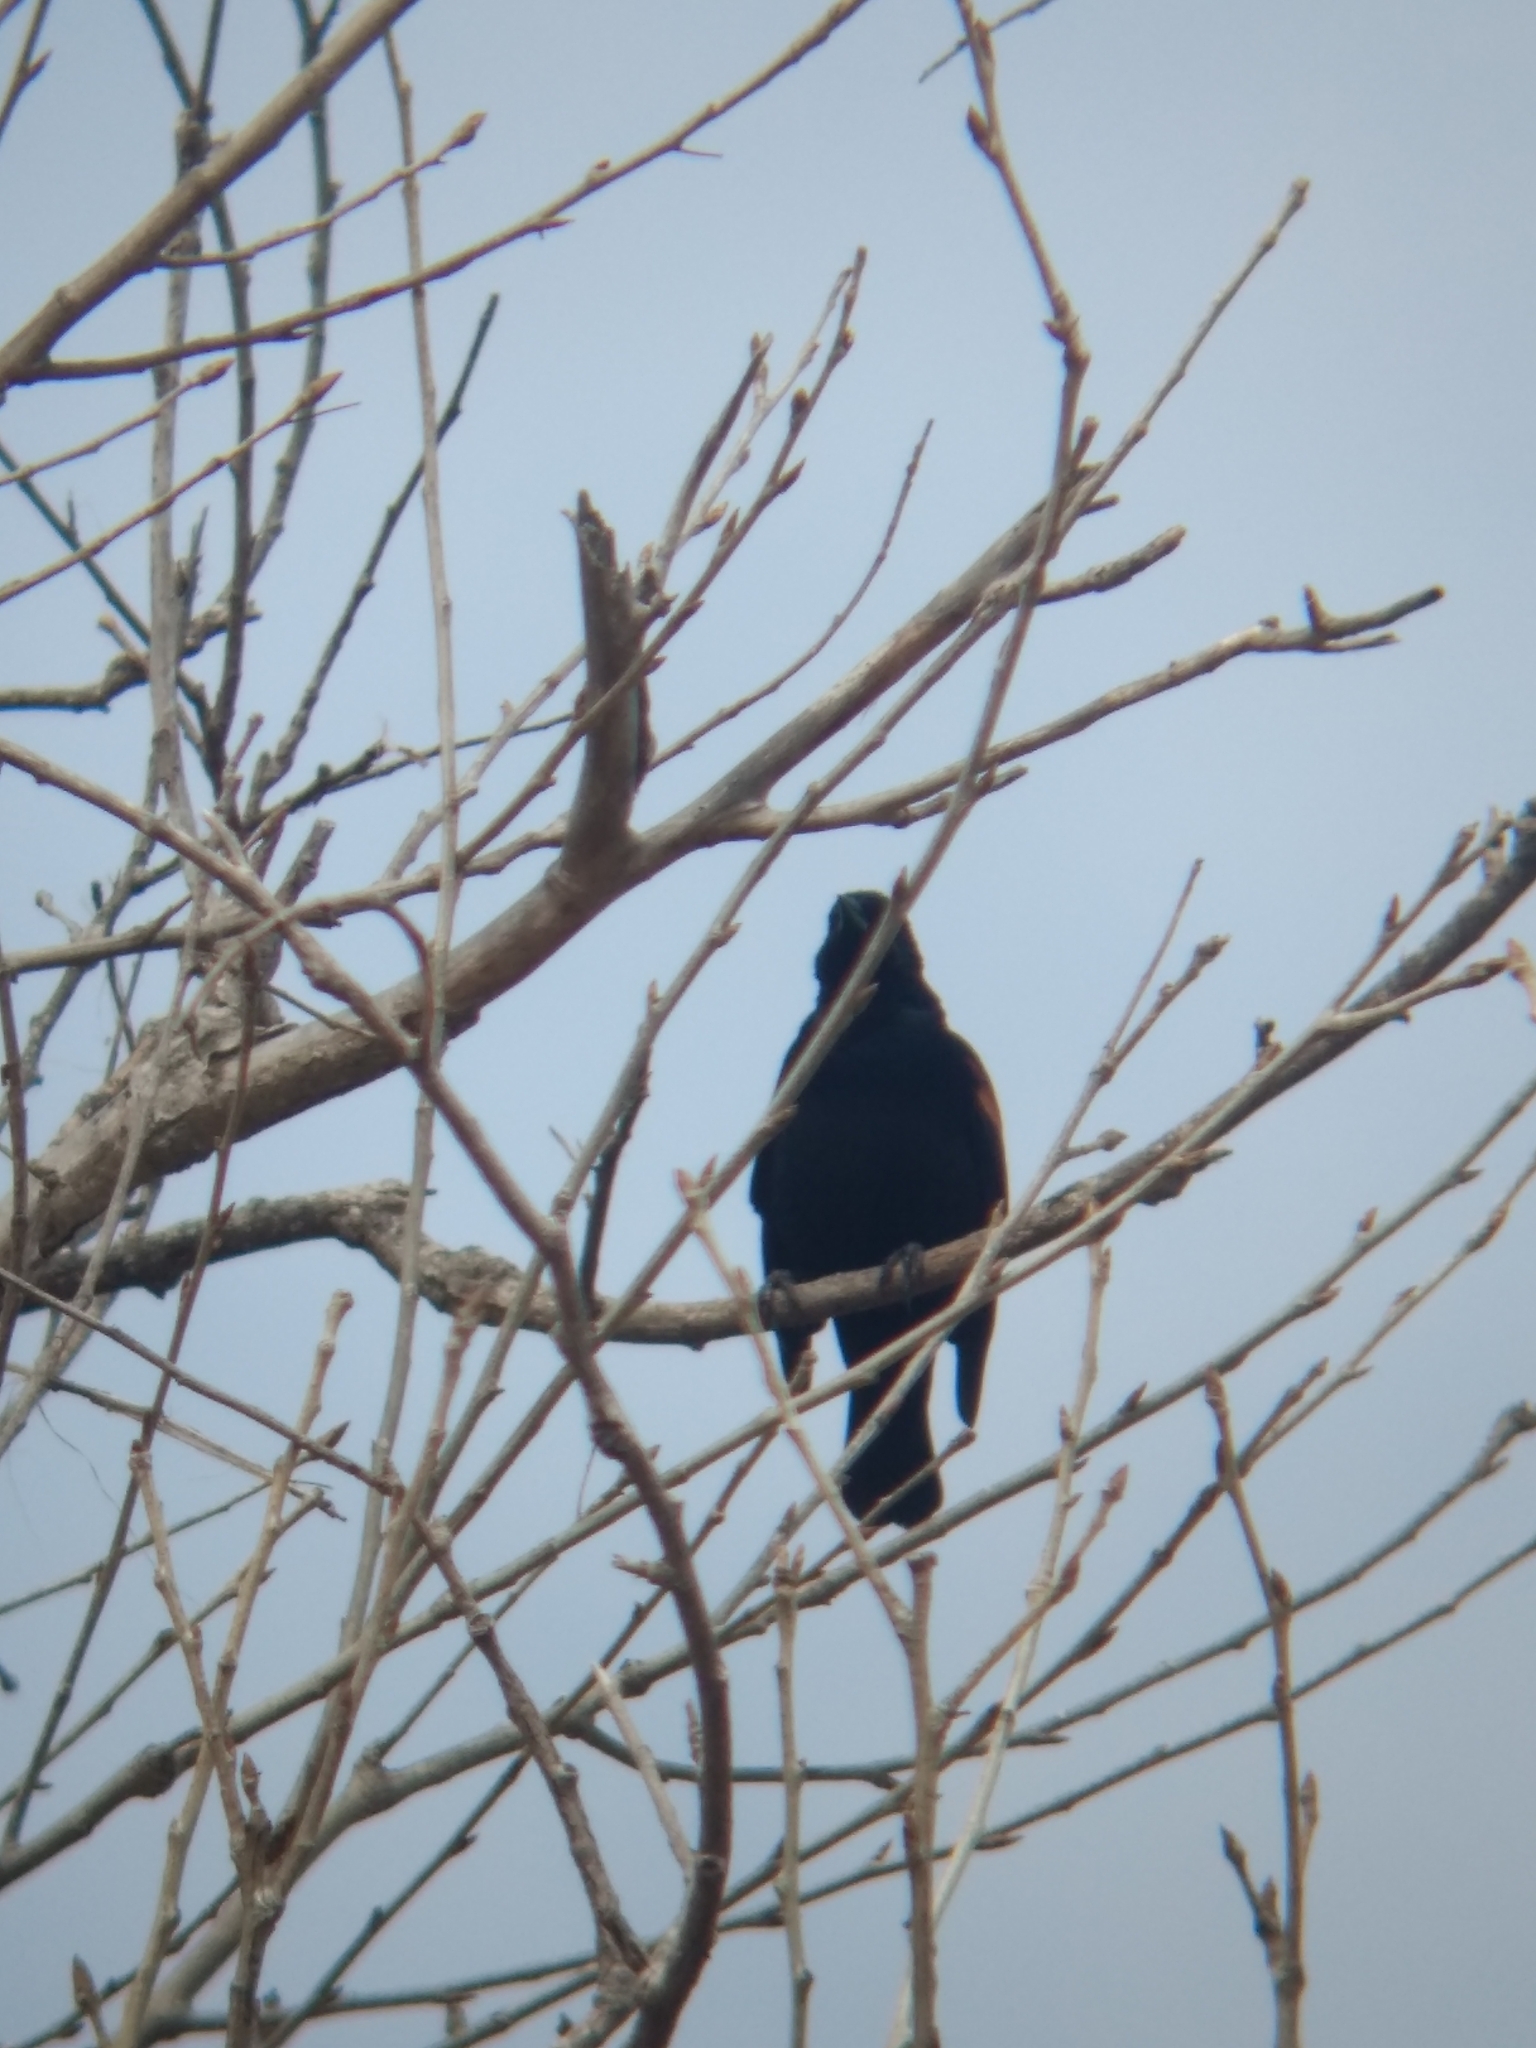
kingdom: Animalia
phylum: Chordata
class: Aves
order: Passeriformes
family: Icteridae
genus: Agelaius
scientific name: Agelaius phoeniceus
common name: Red-winged blackbird
